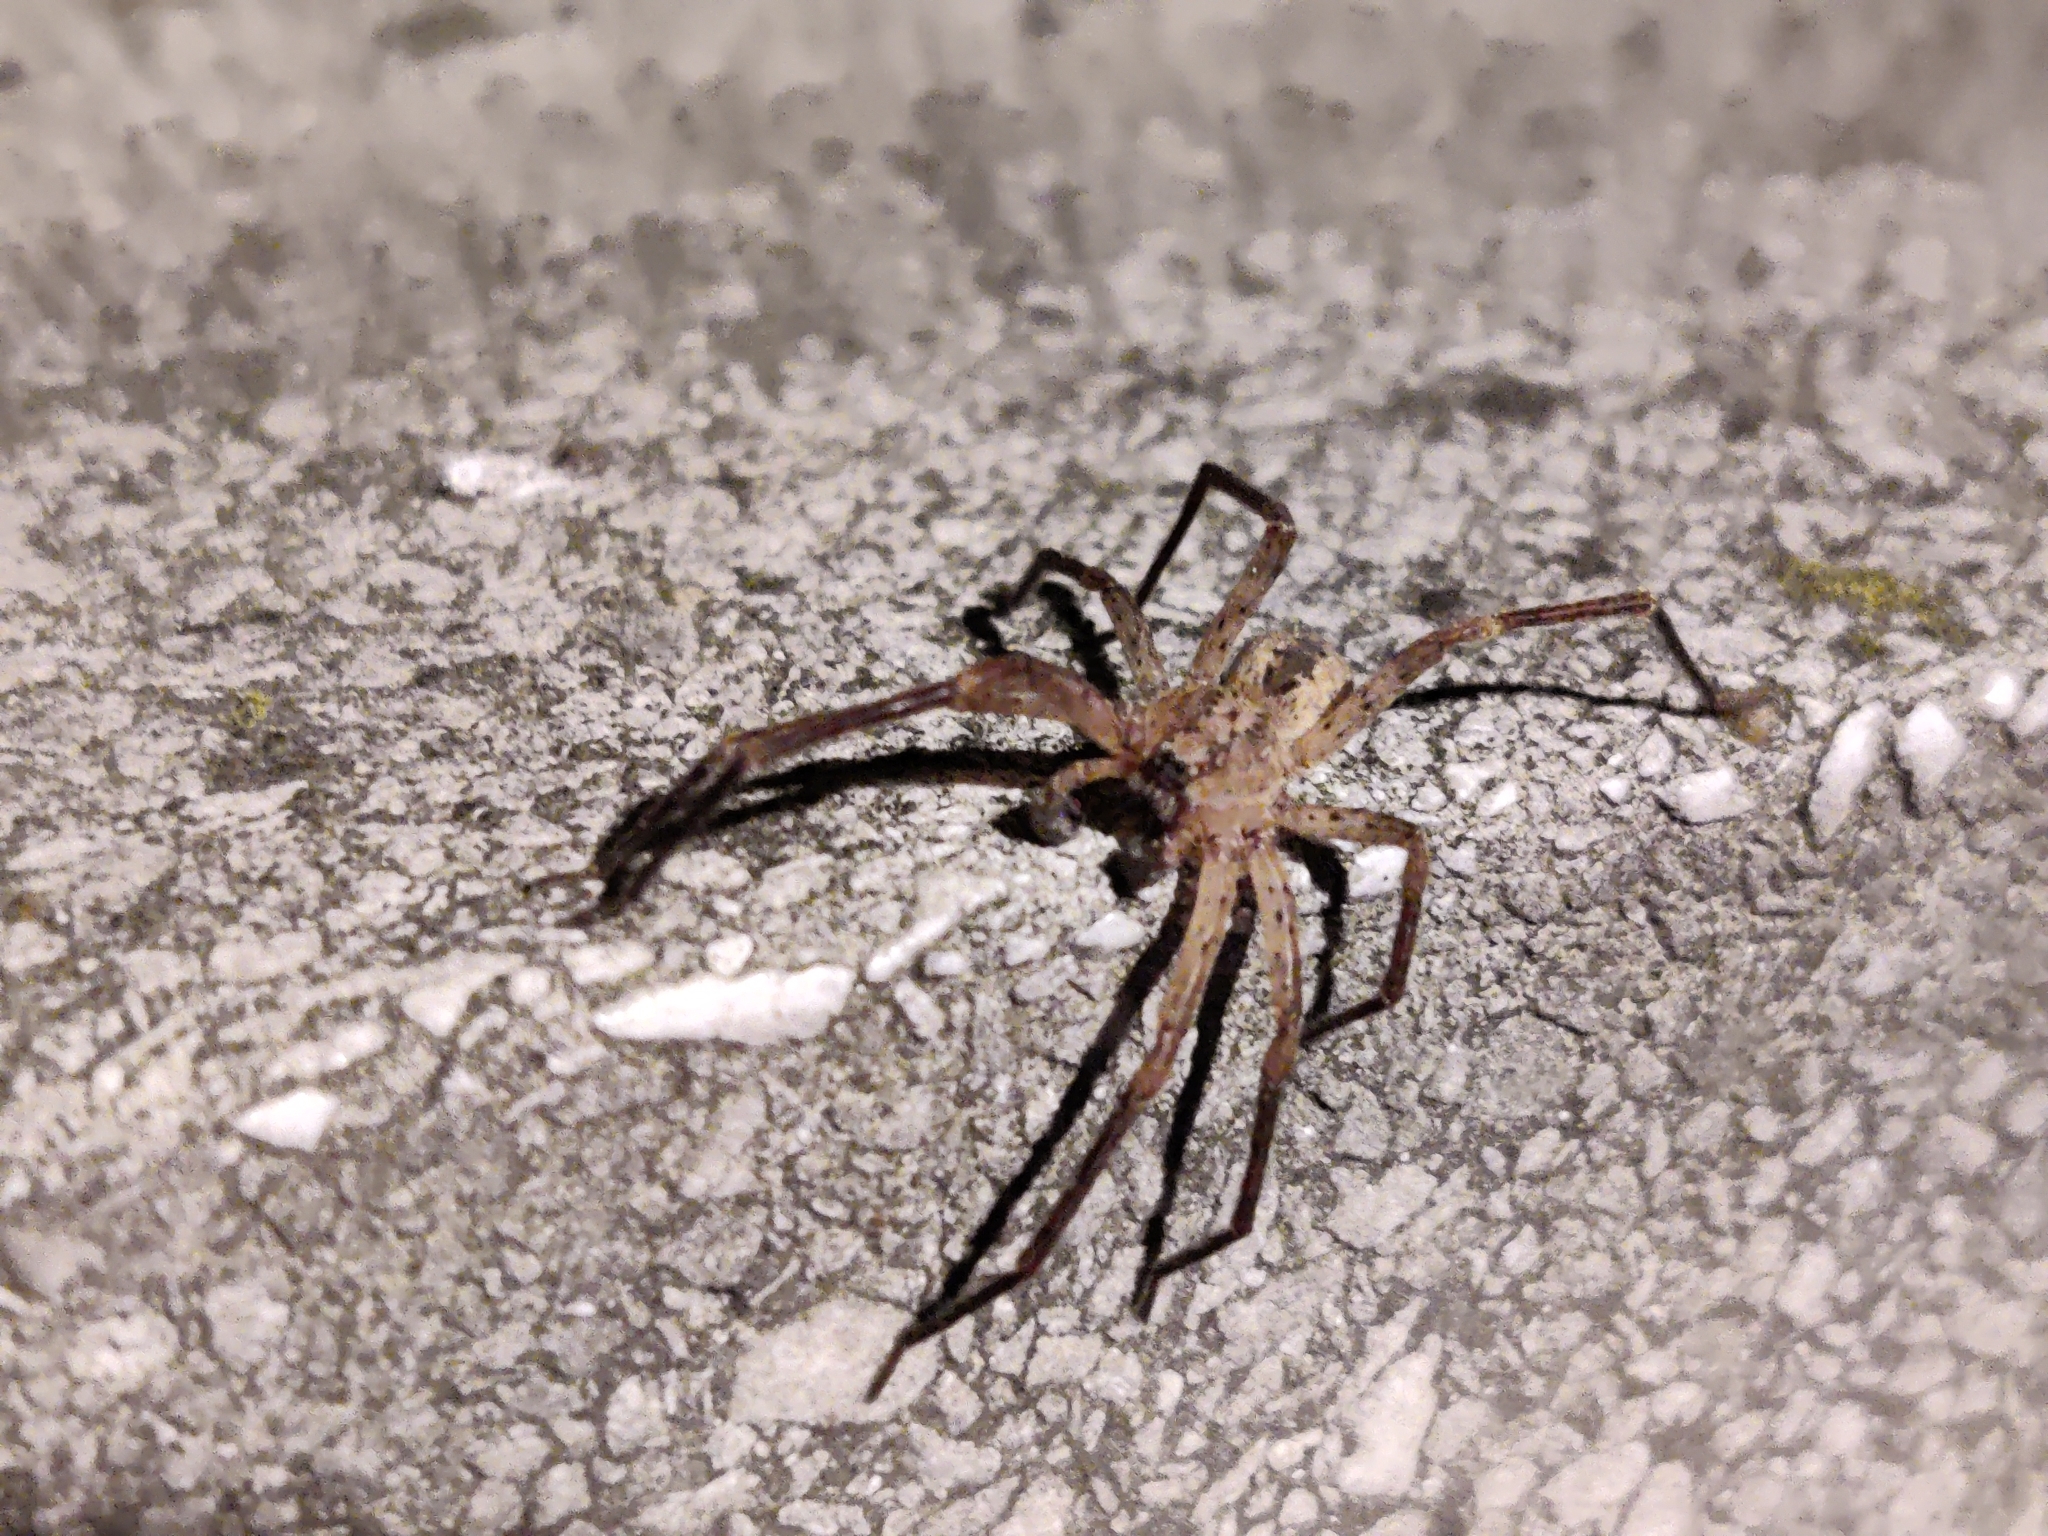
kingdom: Animalia
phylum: Arthropoda
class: Arachnida
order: Araneae
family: Zoropsidae
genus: Zoropsis
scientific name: Zoropsis spinimana
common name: Zoropsid spider
